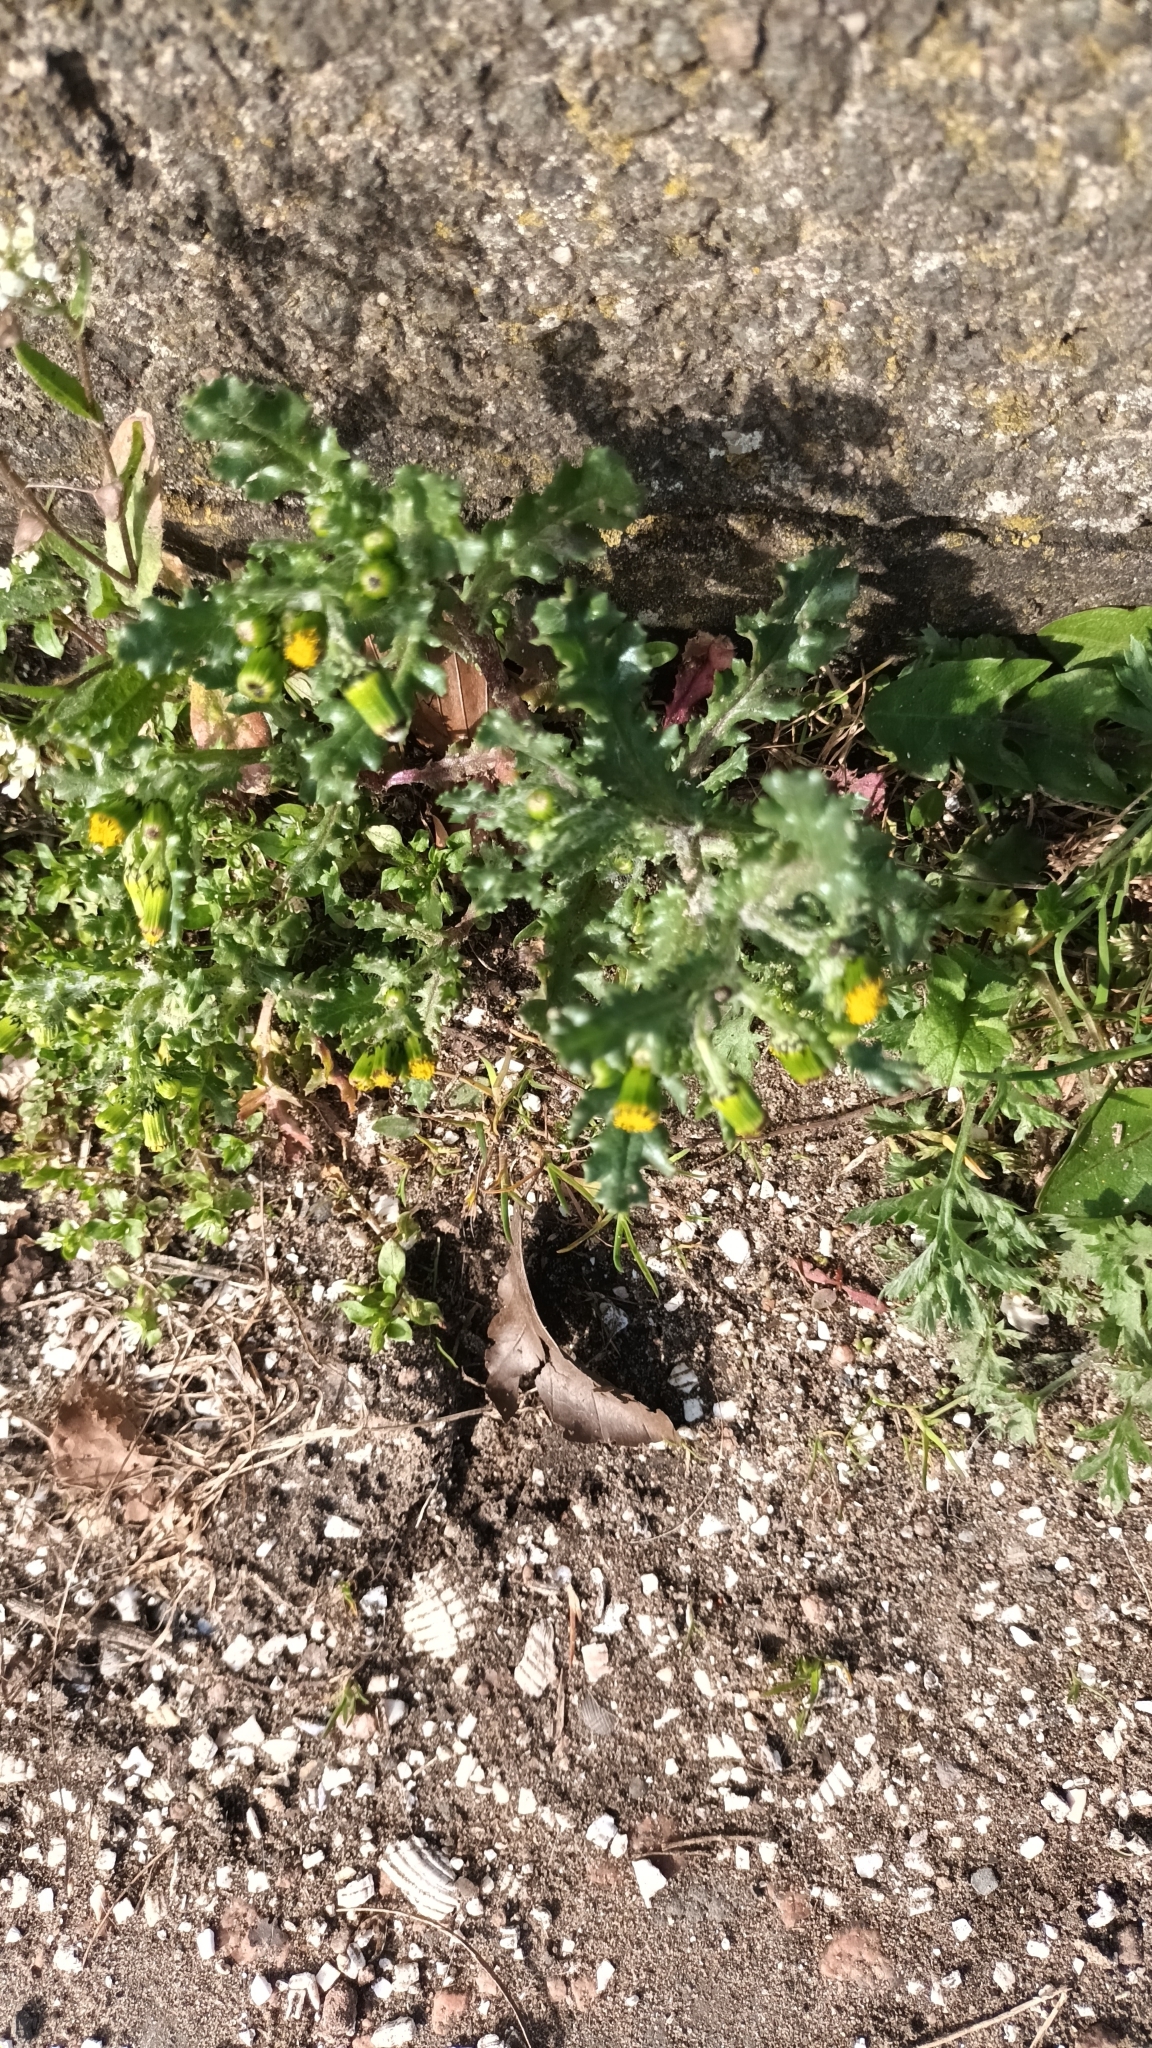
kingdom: Plantae
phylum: Tracheophyta
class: Magnoliopsida
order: Asterales
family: Asteraceae
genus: Senecio
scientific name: Senecio vulgaris
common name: Old-man-in-the-spring
